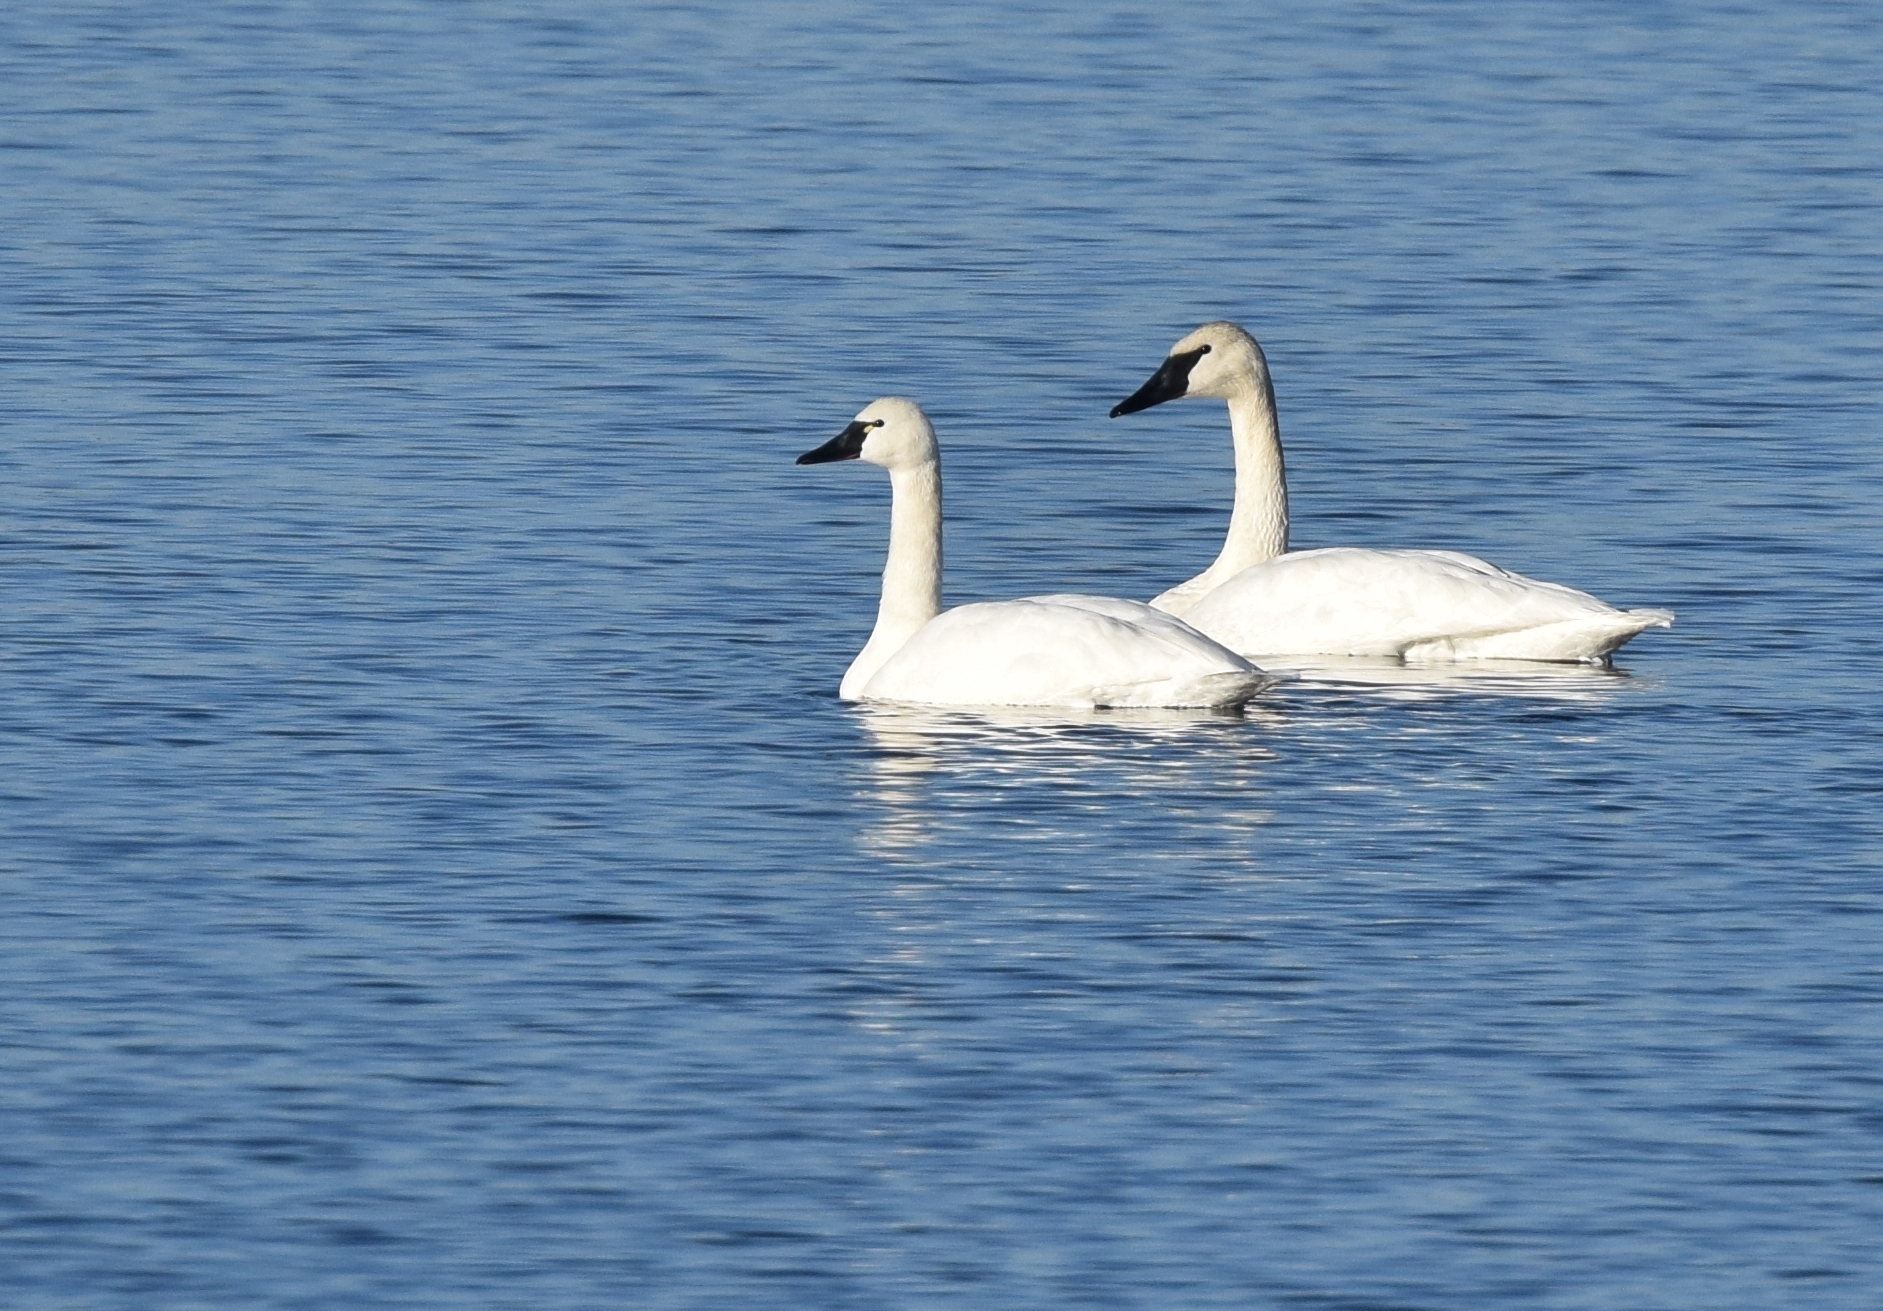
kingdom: Animalia
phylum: Chordata
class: Aves
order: Anseriformes
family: Anatidae
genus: Cygnus
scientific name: Cygnus columbianus
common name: Tundra swan
